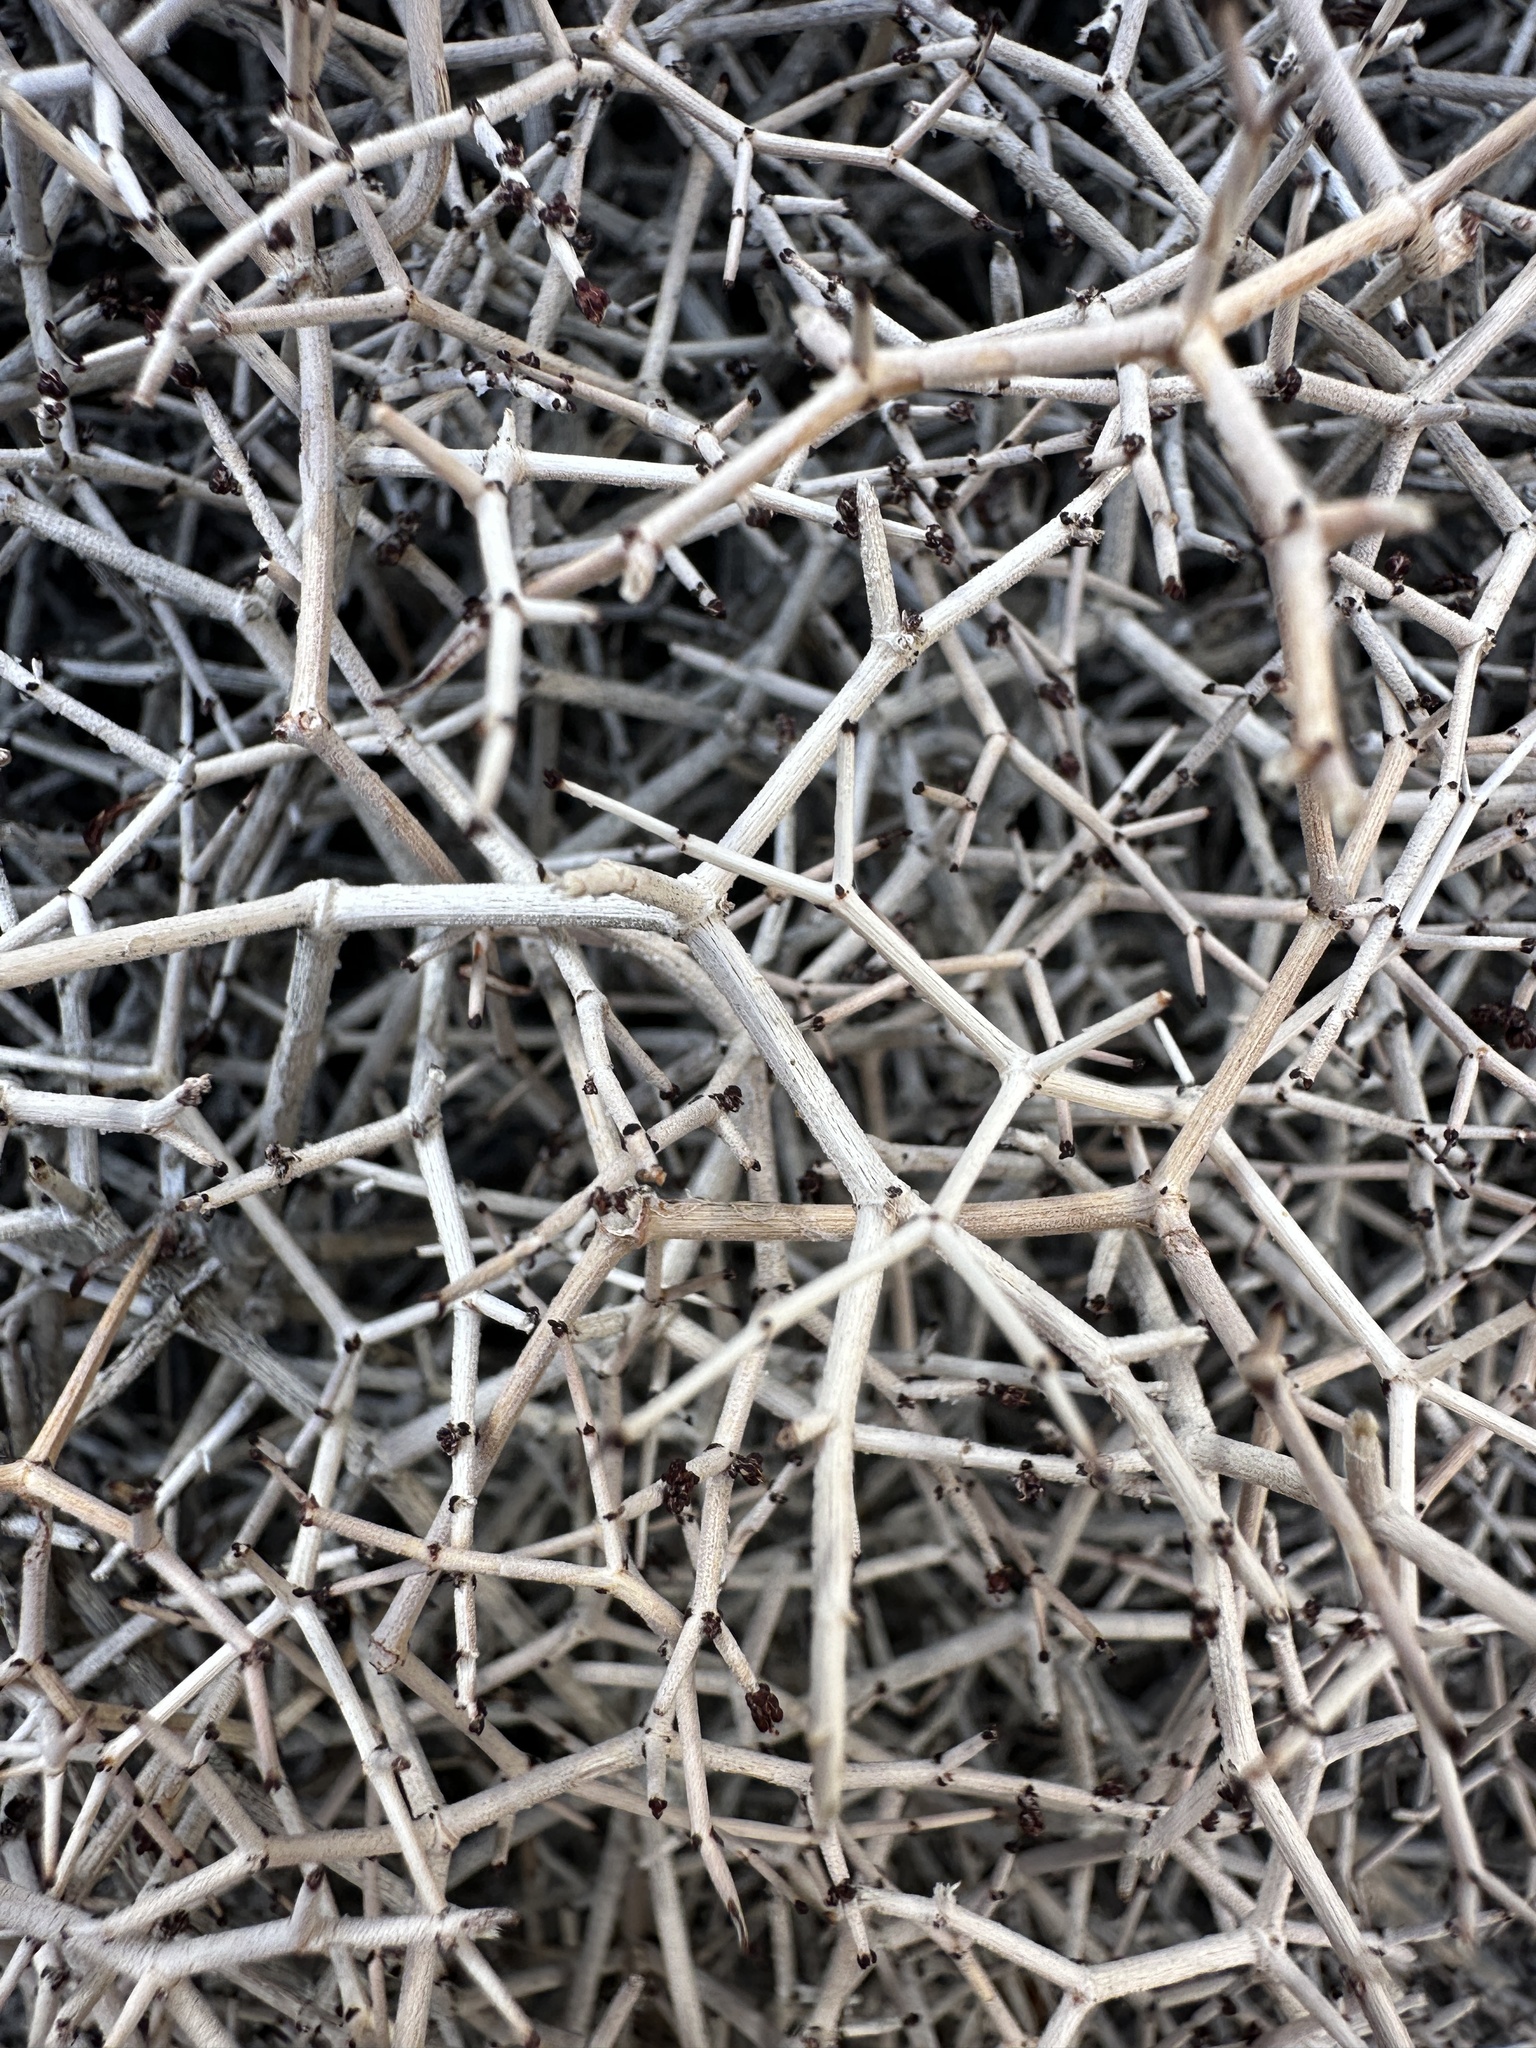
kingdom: Plantae
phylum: Tracheophyta
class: Magnoliopsida
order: Caryophyllales
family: Polygonaceae
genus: Eriogonum
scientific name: Eriogonum heermannii
